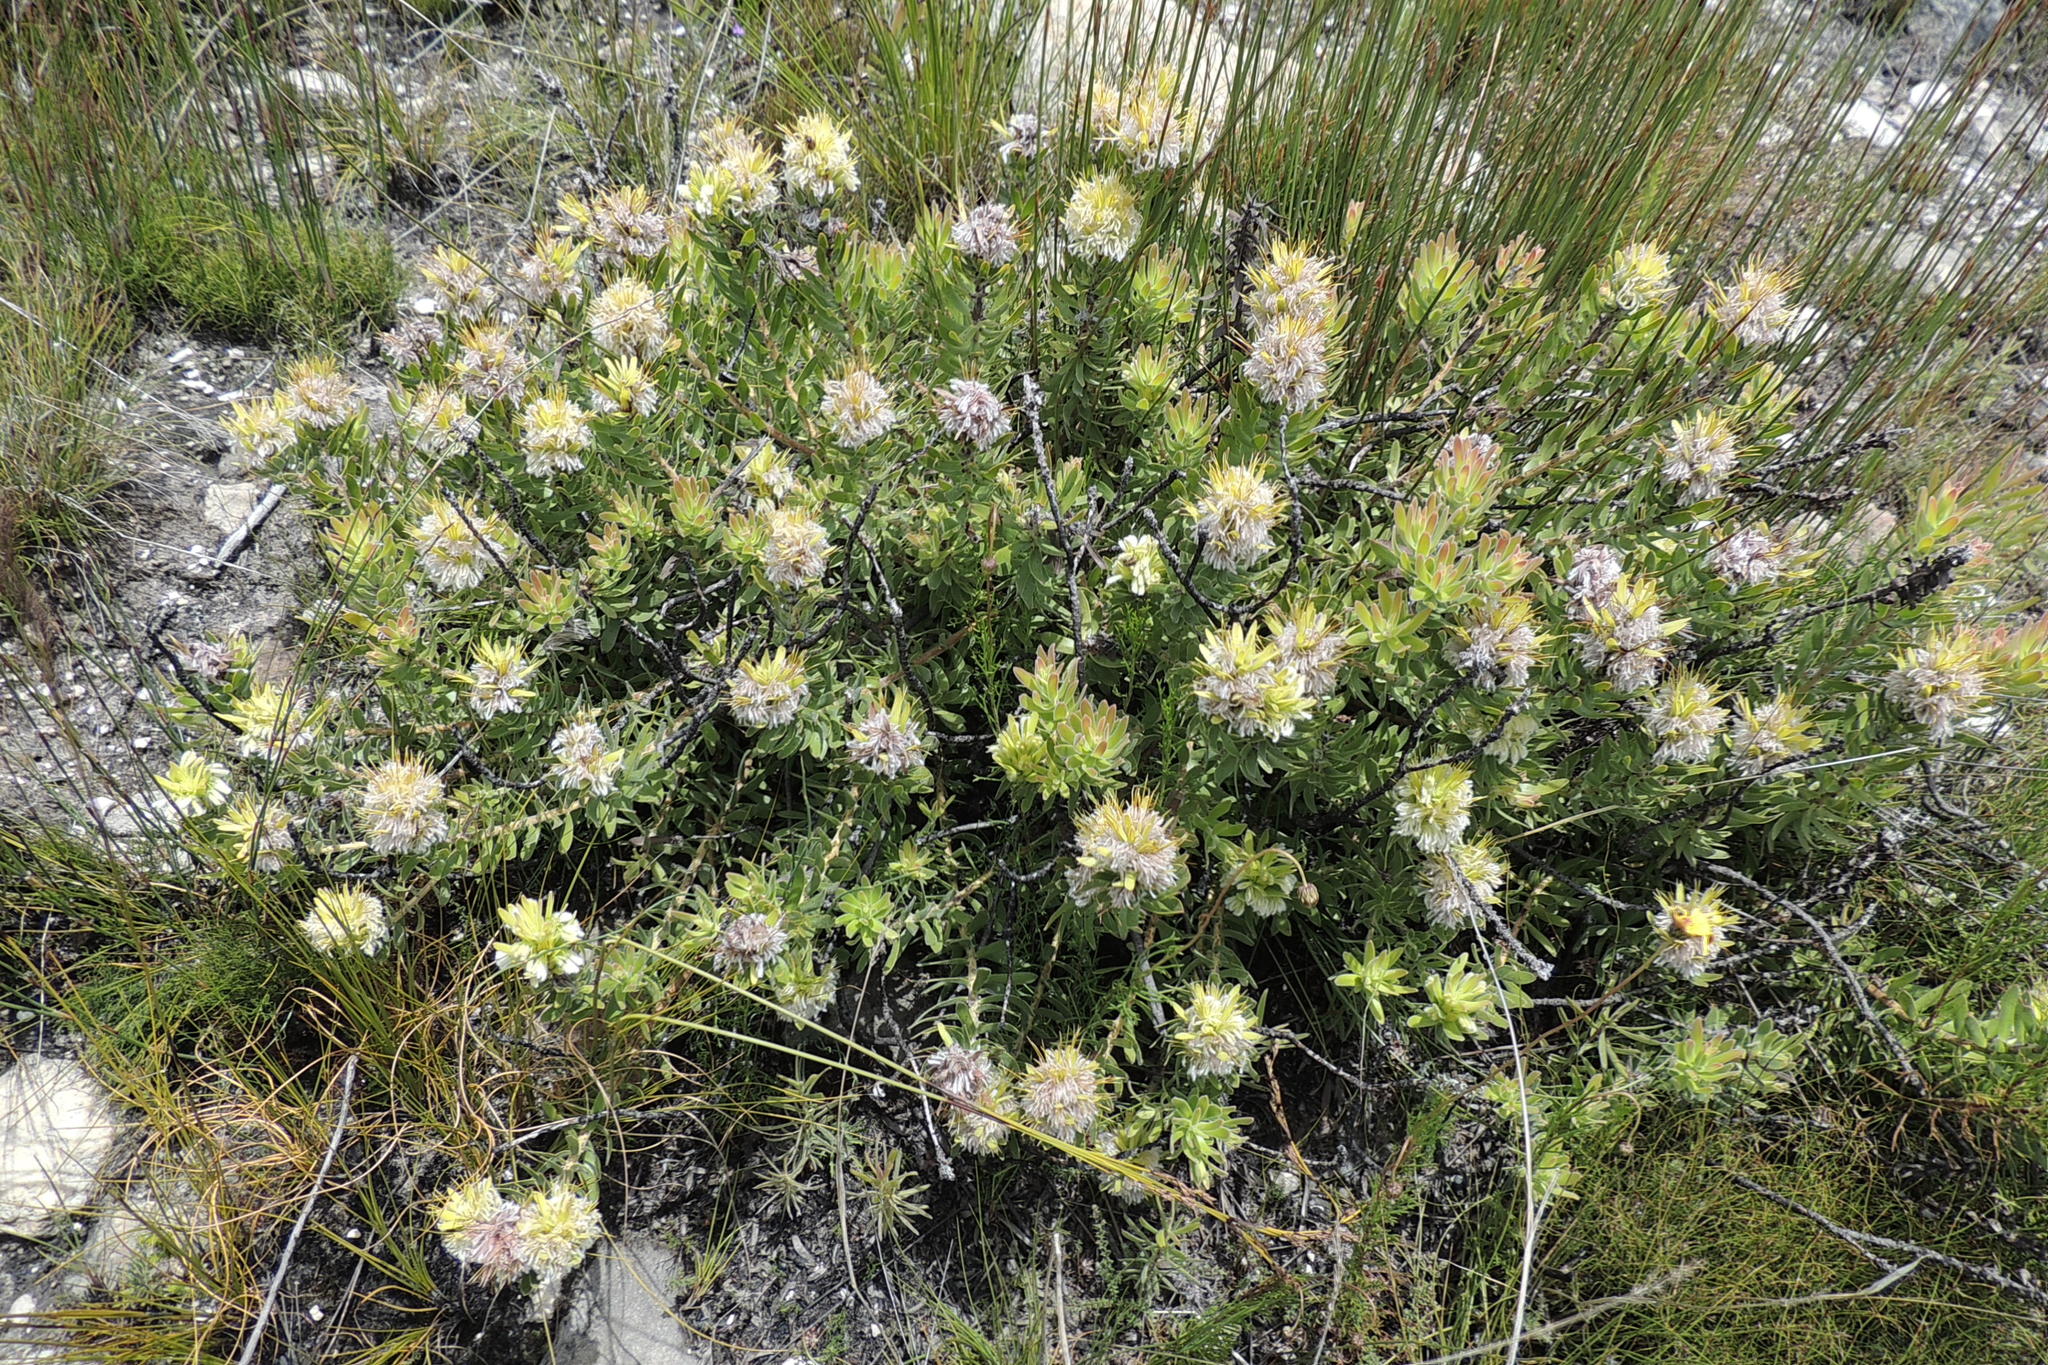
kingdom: Plantae
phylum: Tracheophyta
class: Magnoliopsida
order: Proteales
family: Proteaceae
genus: Mimetes
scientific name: Mimetes cucullatus
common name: Common pagoda
